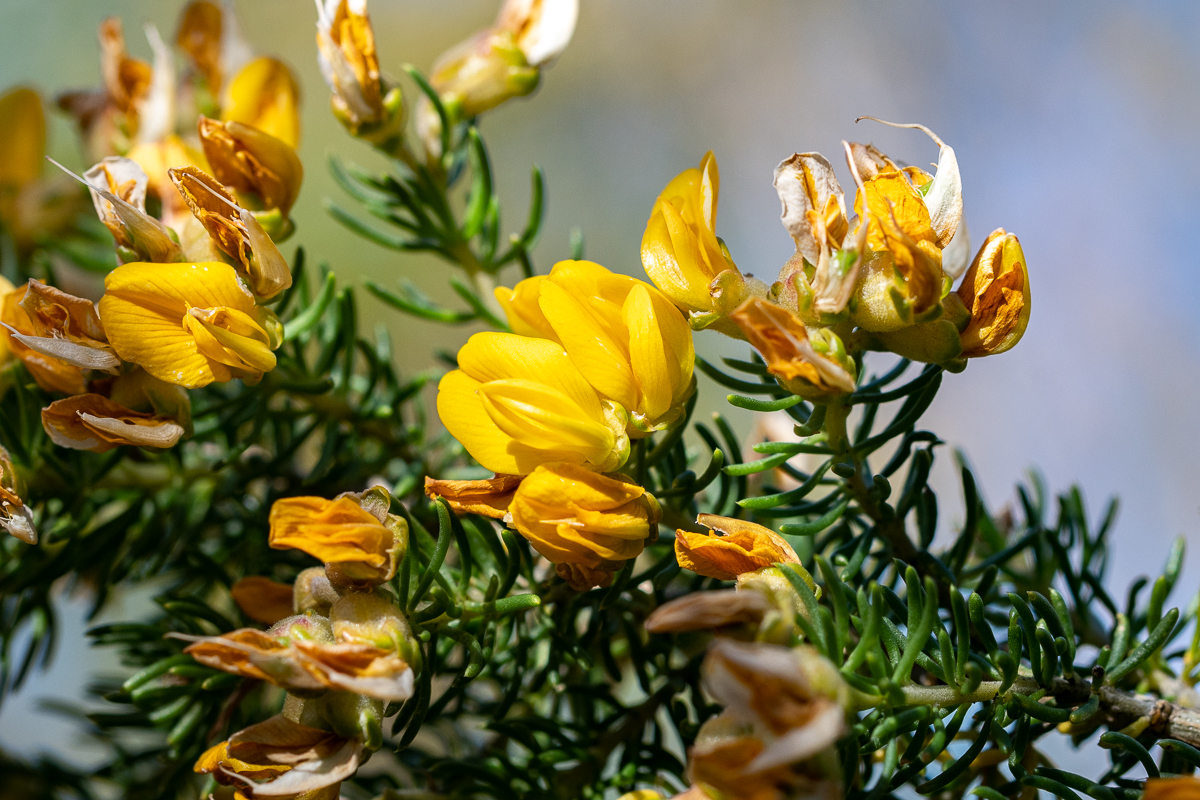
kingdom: Plantae
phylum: Tracheophyta
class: Magnoliopsida
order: Fabales
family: Fabaceae
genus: Aspalathus
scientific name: Aspalathus excelsa
